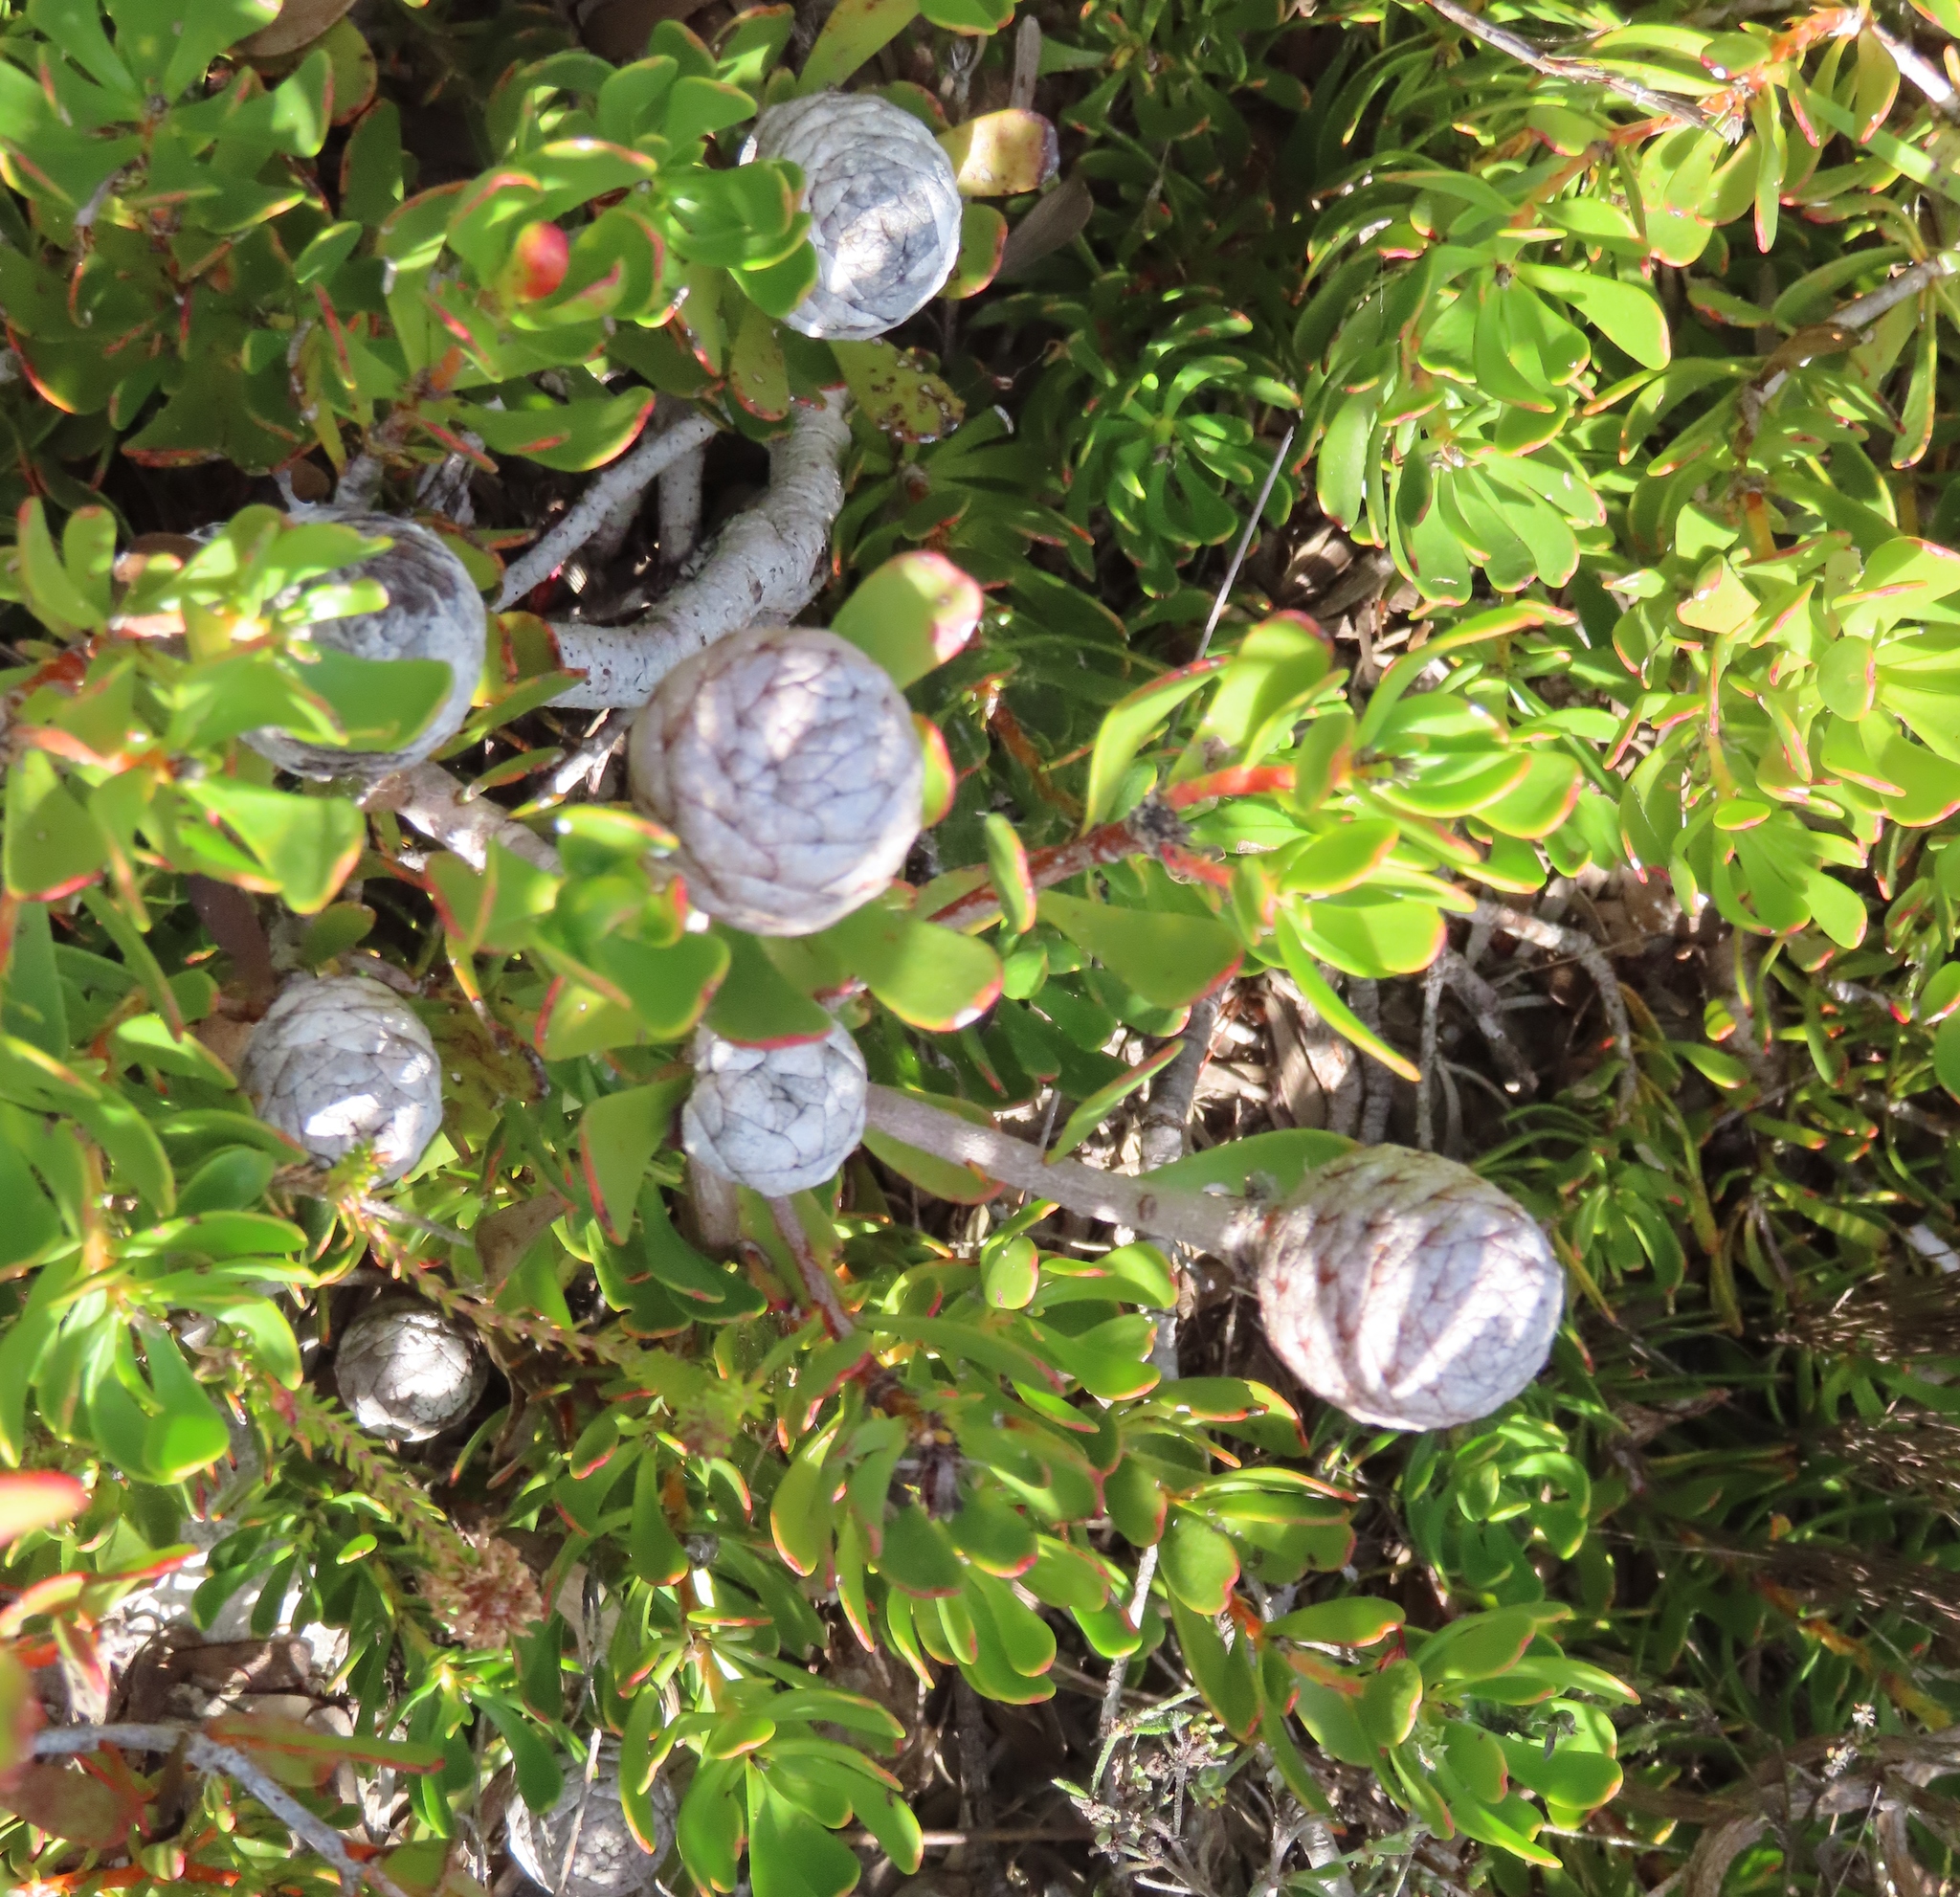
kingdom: Plantae
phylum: Tracheophyta
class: Magnoliopsida
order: Proteales
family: Proteaceae
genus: Leucadendron
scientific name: Leucadendron muirii
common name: Silver-ball conebush
